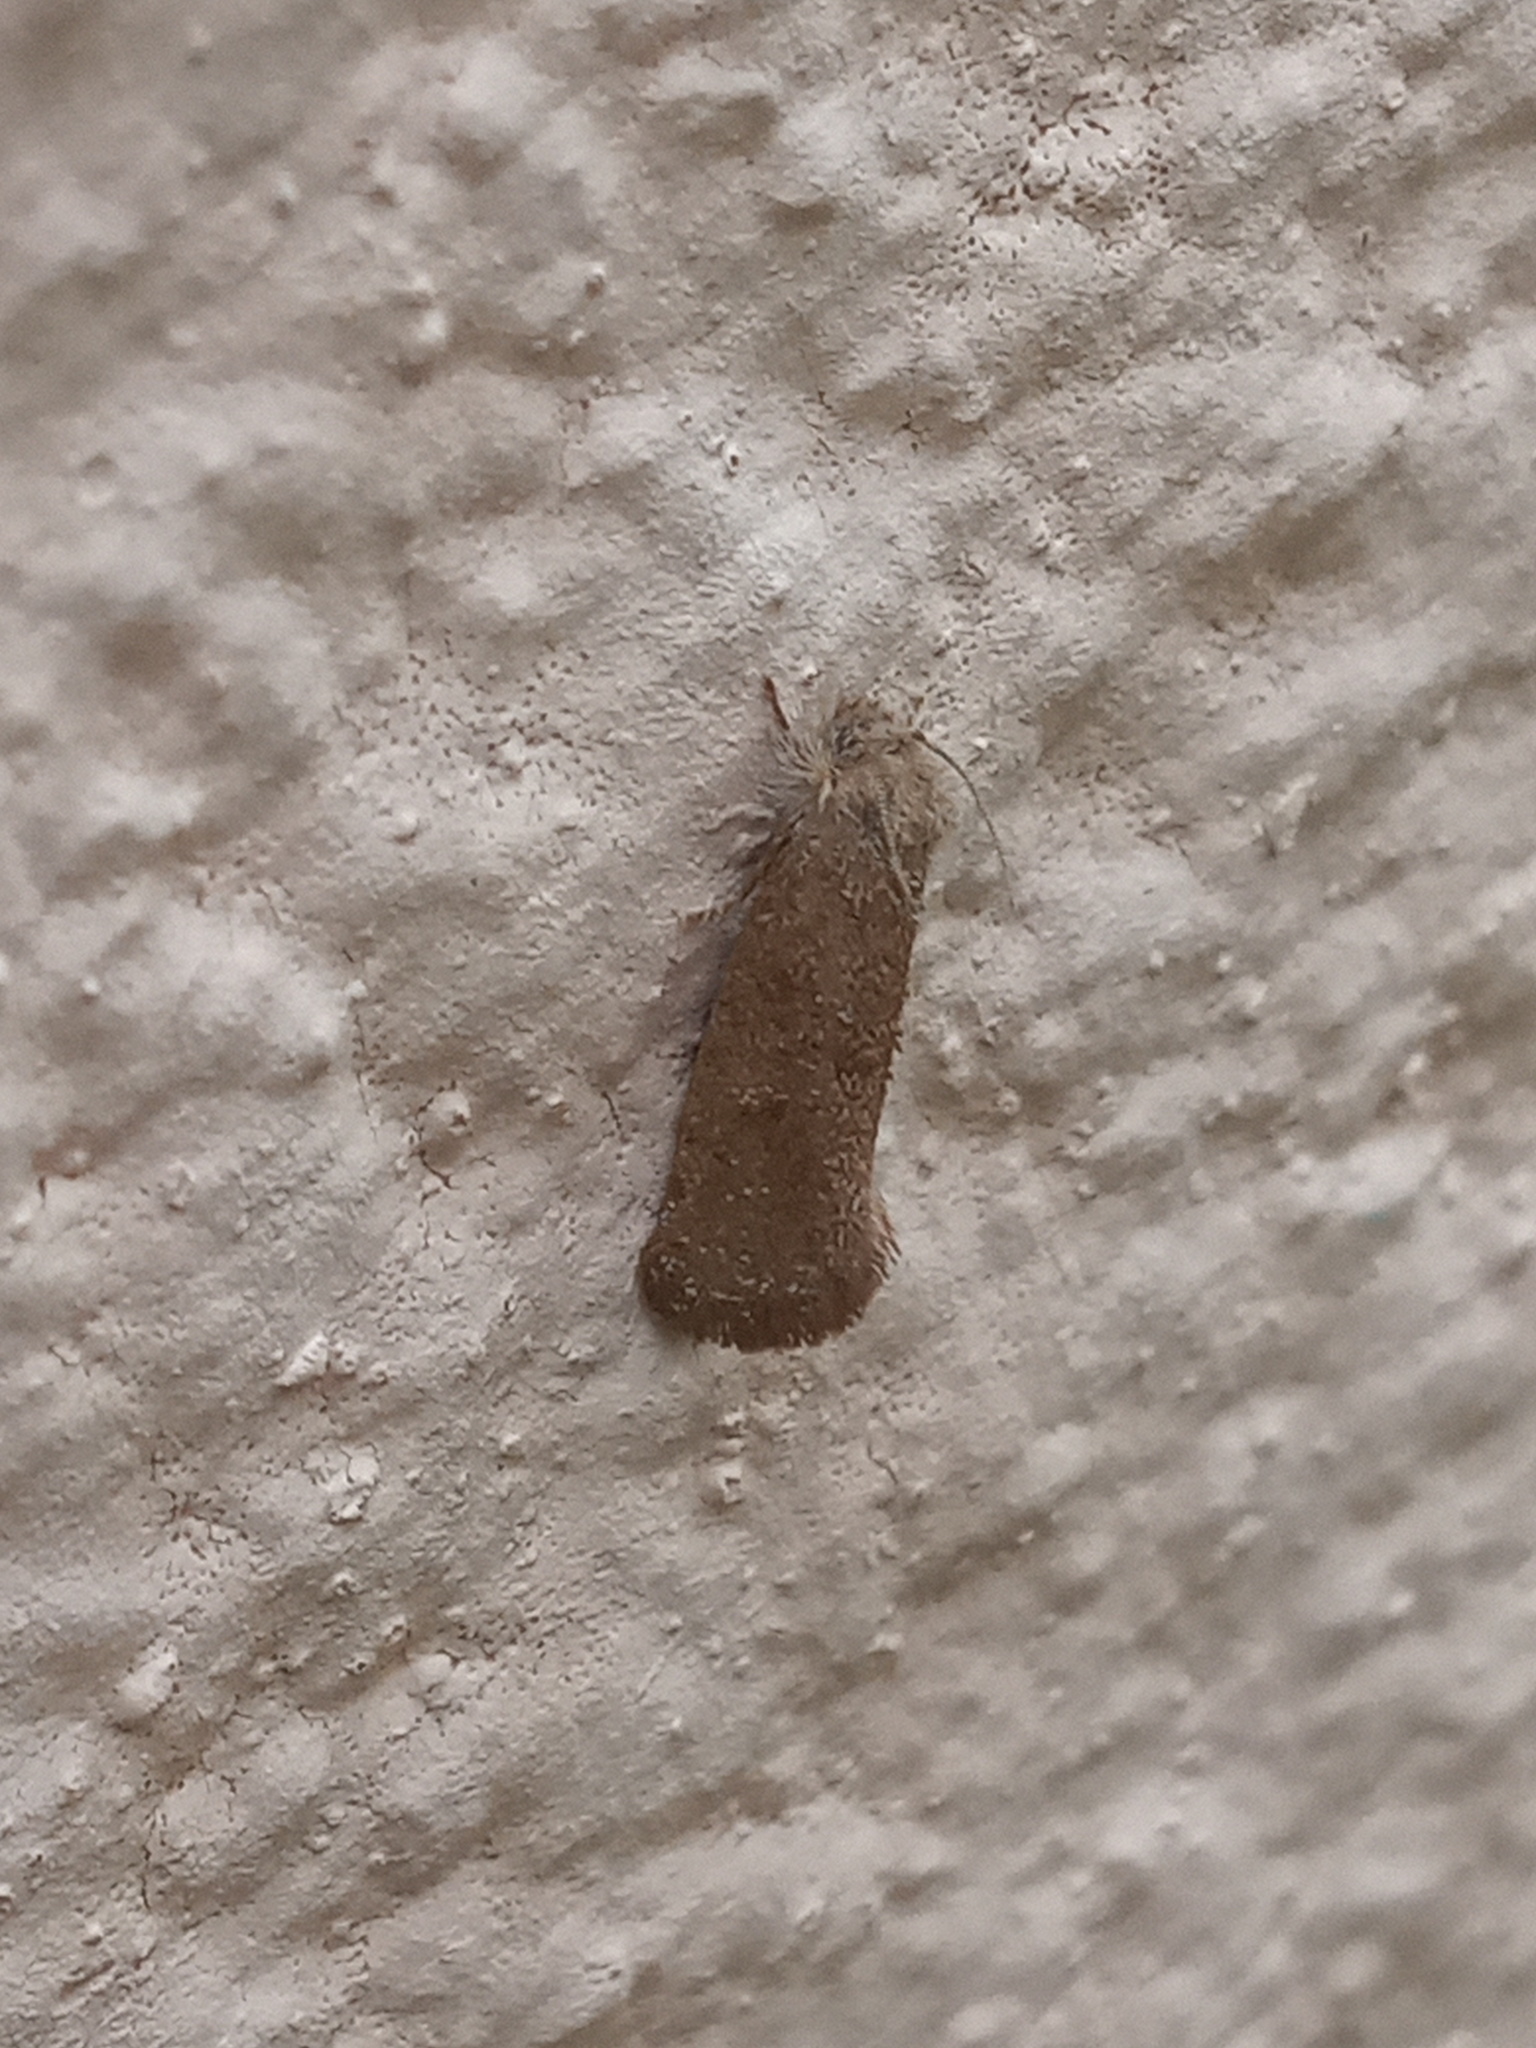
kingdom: Animalia
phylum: Arthropoda
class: Insecta
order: Lepidoptera
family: Tineidae
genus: Acrolophus
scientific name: Acrolophus heppneri
